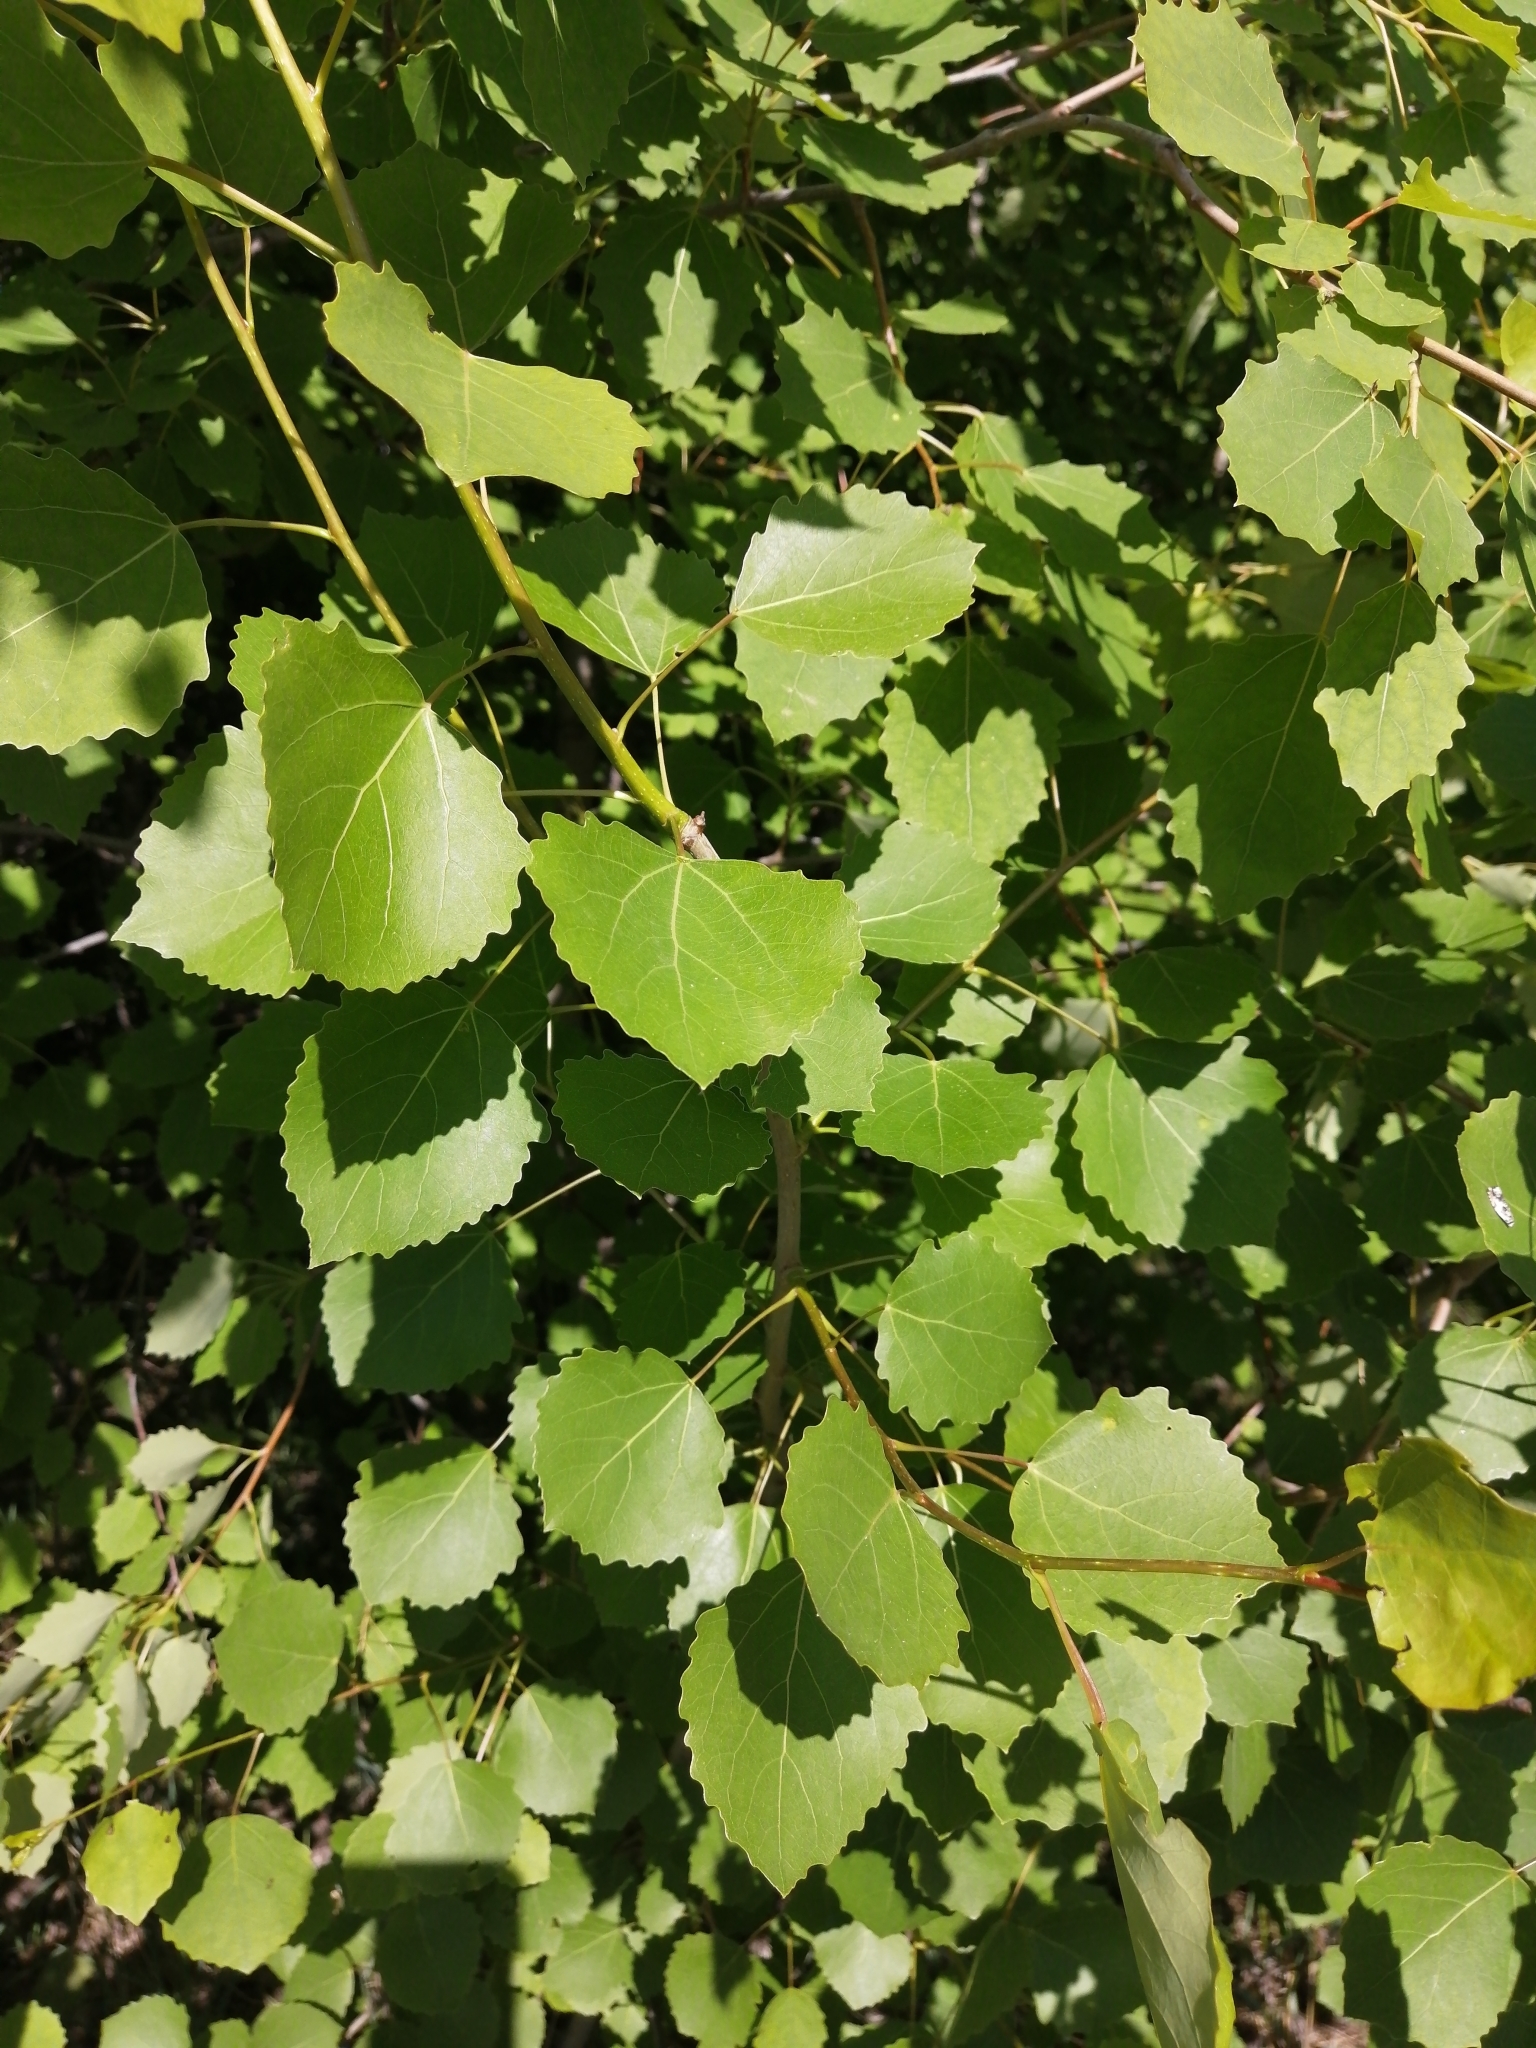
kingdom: Plantae
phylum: Tracheophyta
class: Magnoliopsida
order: Malpighiales
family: Salicaceae
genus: Populus
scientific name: Populus tremula
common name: European aspen
